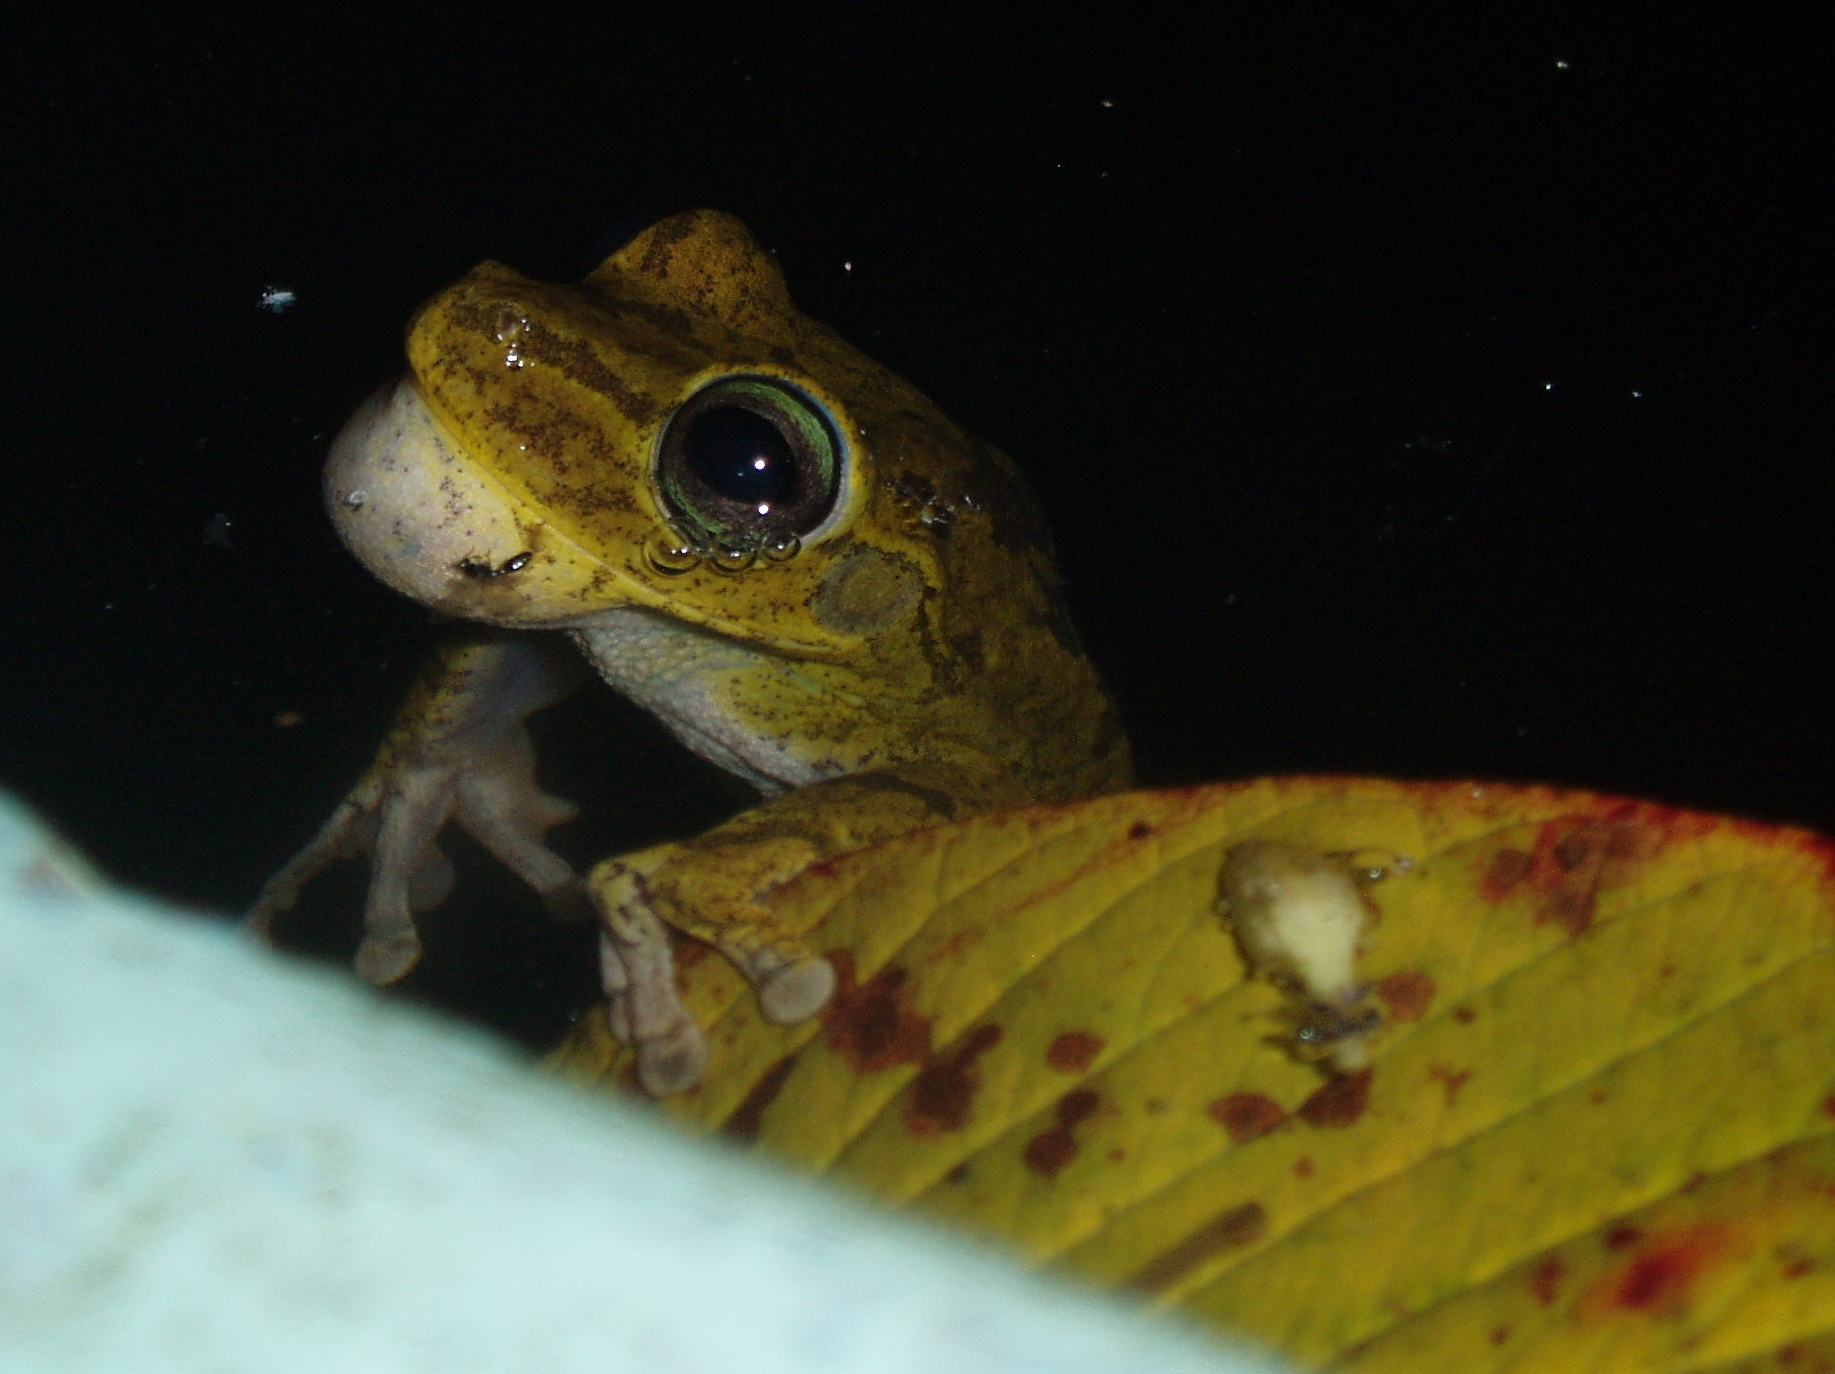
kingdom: Animalia
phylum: Chordata
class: Amphibia
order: Anura
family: Hylidae
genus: Boana
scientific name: Boana pugnax
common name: Chirique-flusse treefrog
